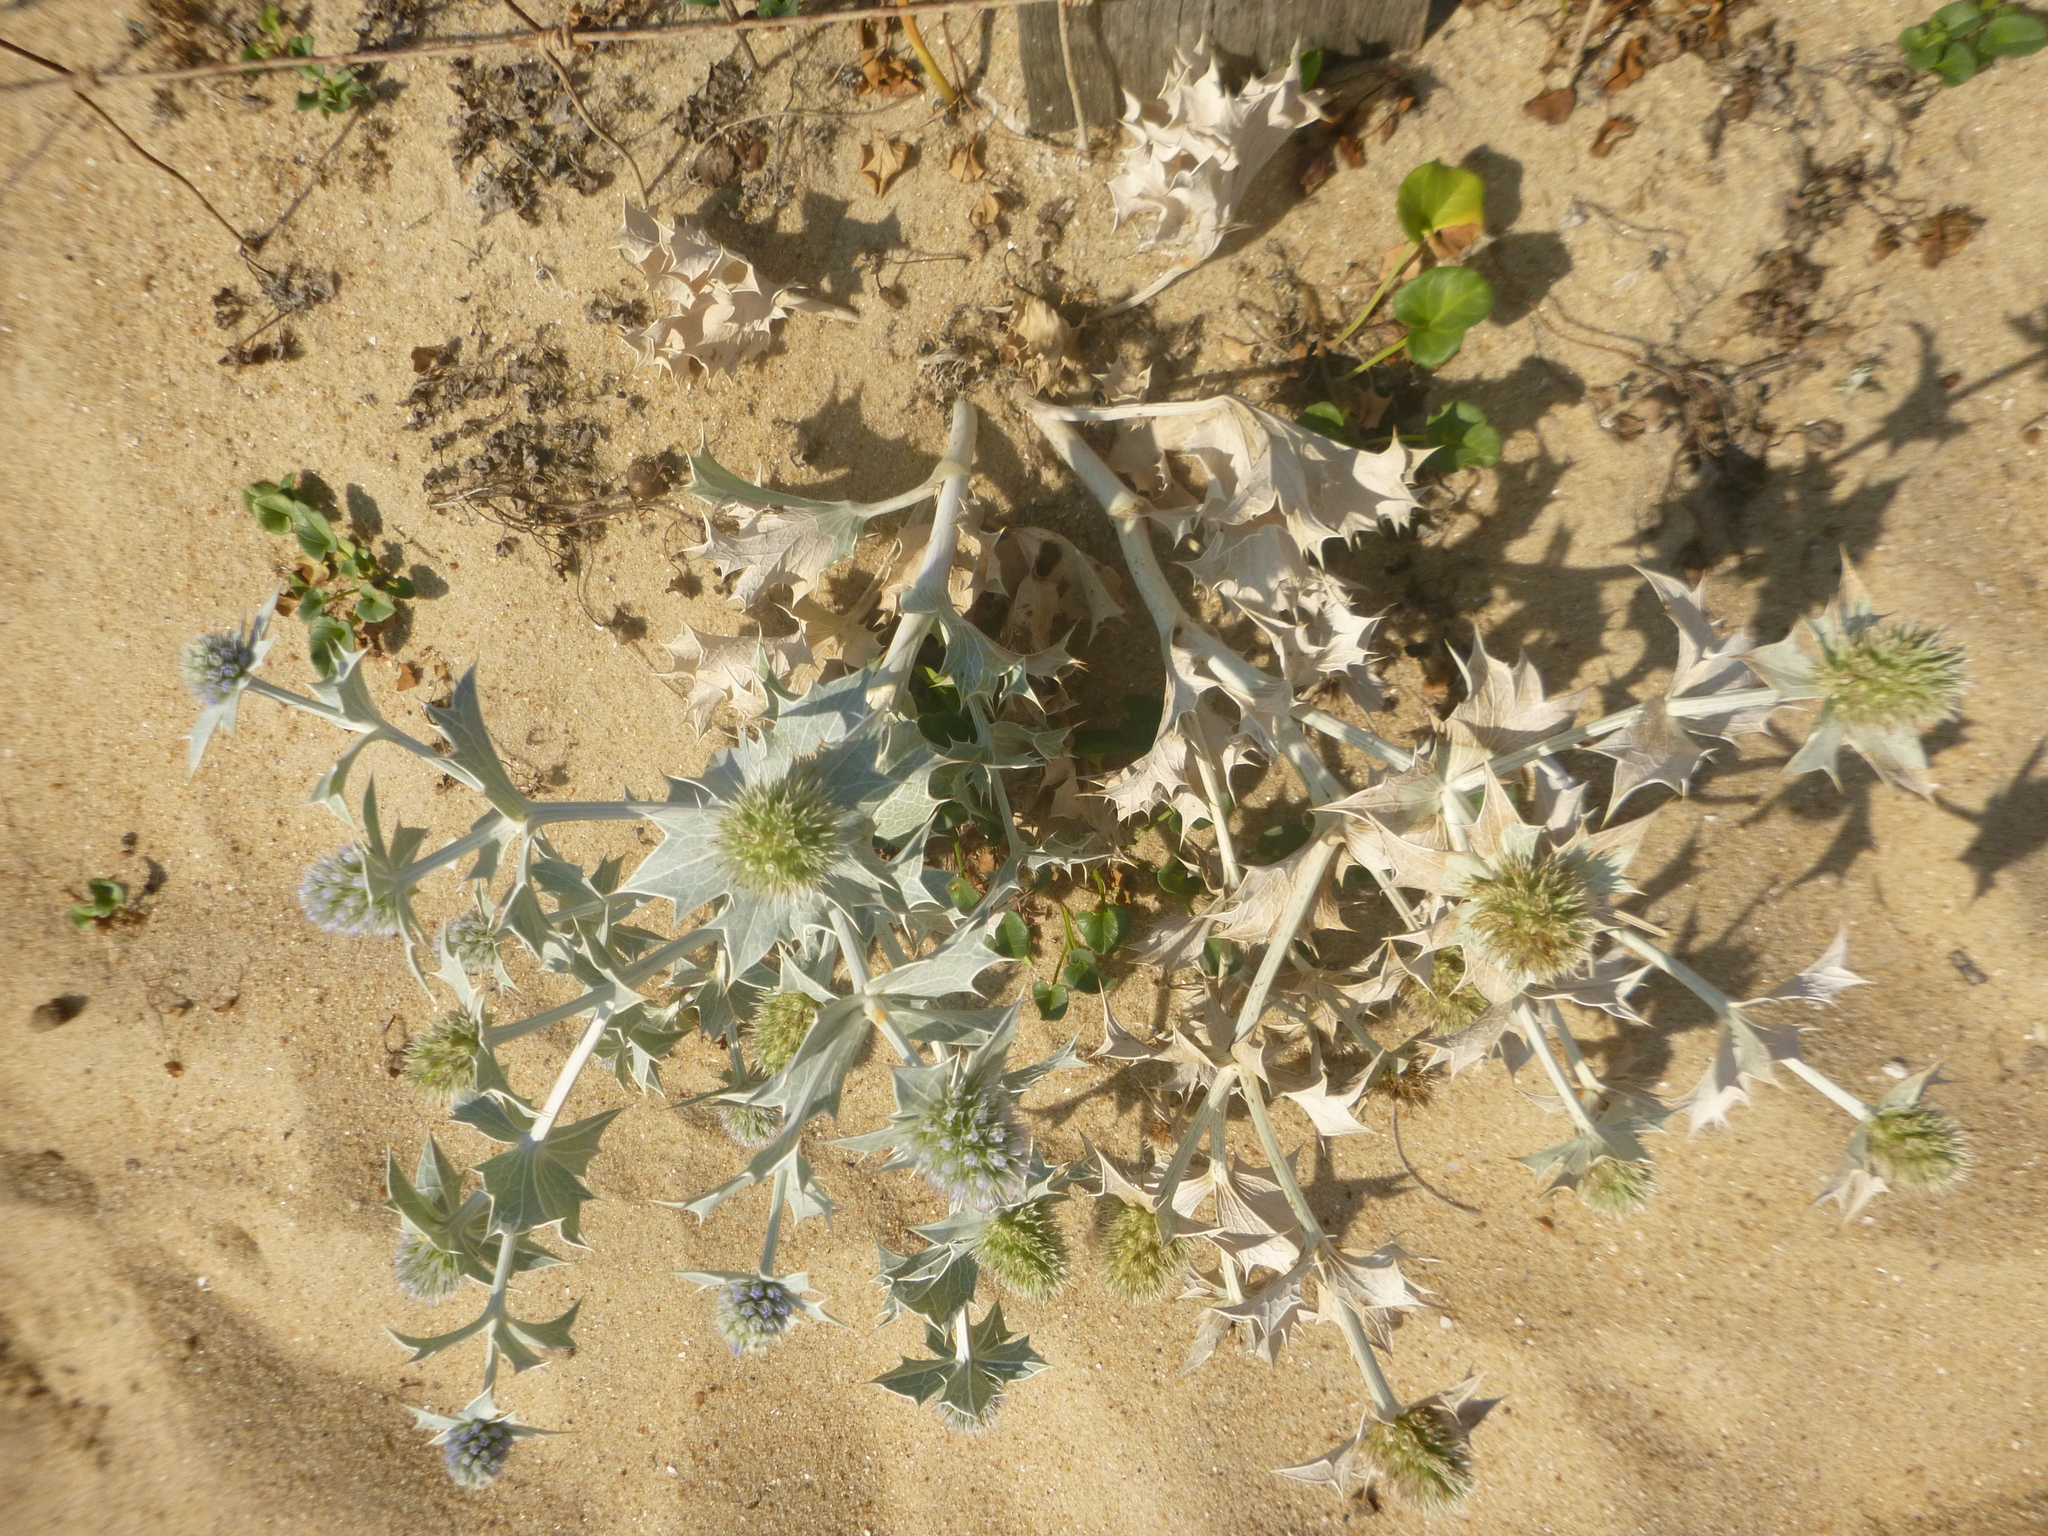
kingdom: Plantae
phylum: Tracheophyta
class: Magnoliopsida
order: Apiales
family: Apiaceae
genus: Eryngium
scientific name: Eryngium maritimum
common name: Sea-holly
